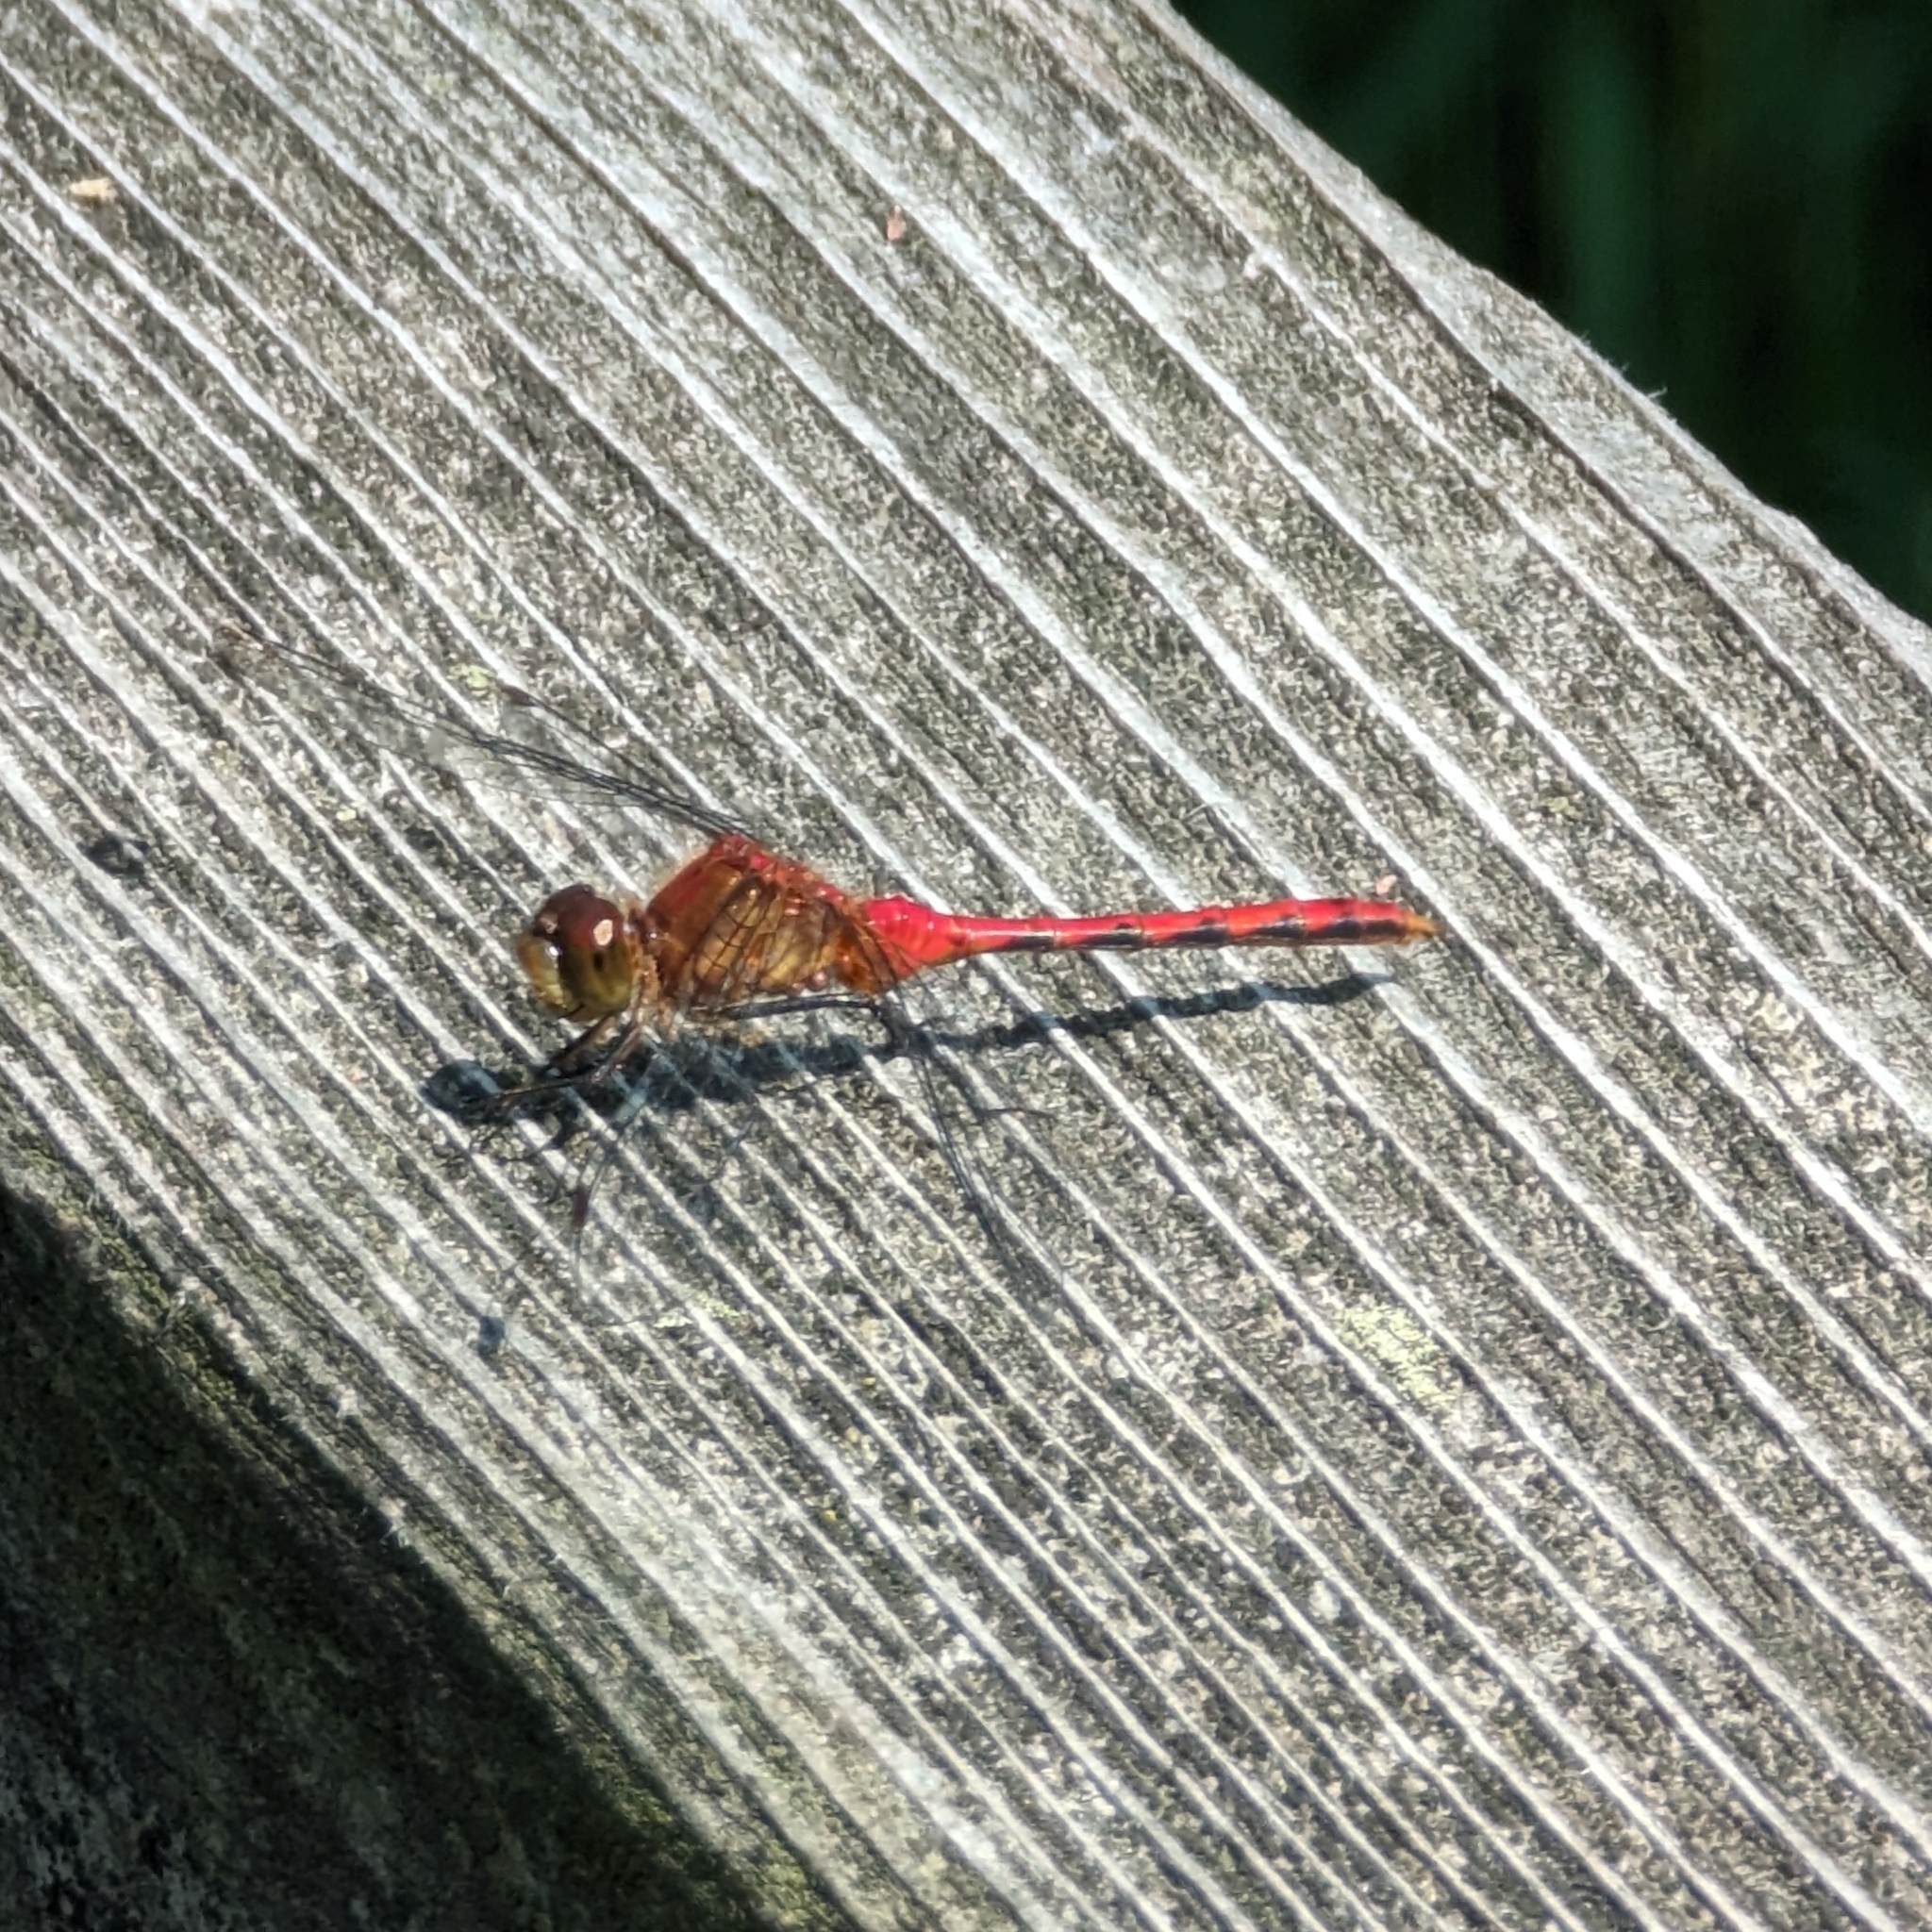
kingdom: Animalia
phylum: Arthropoda
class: Insecta
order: Odonata
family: Libellulidae
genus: Sympetrum
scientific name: Sympetrum
